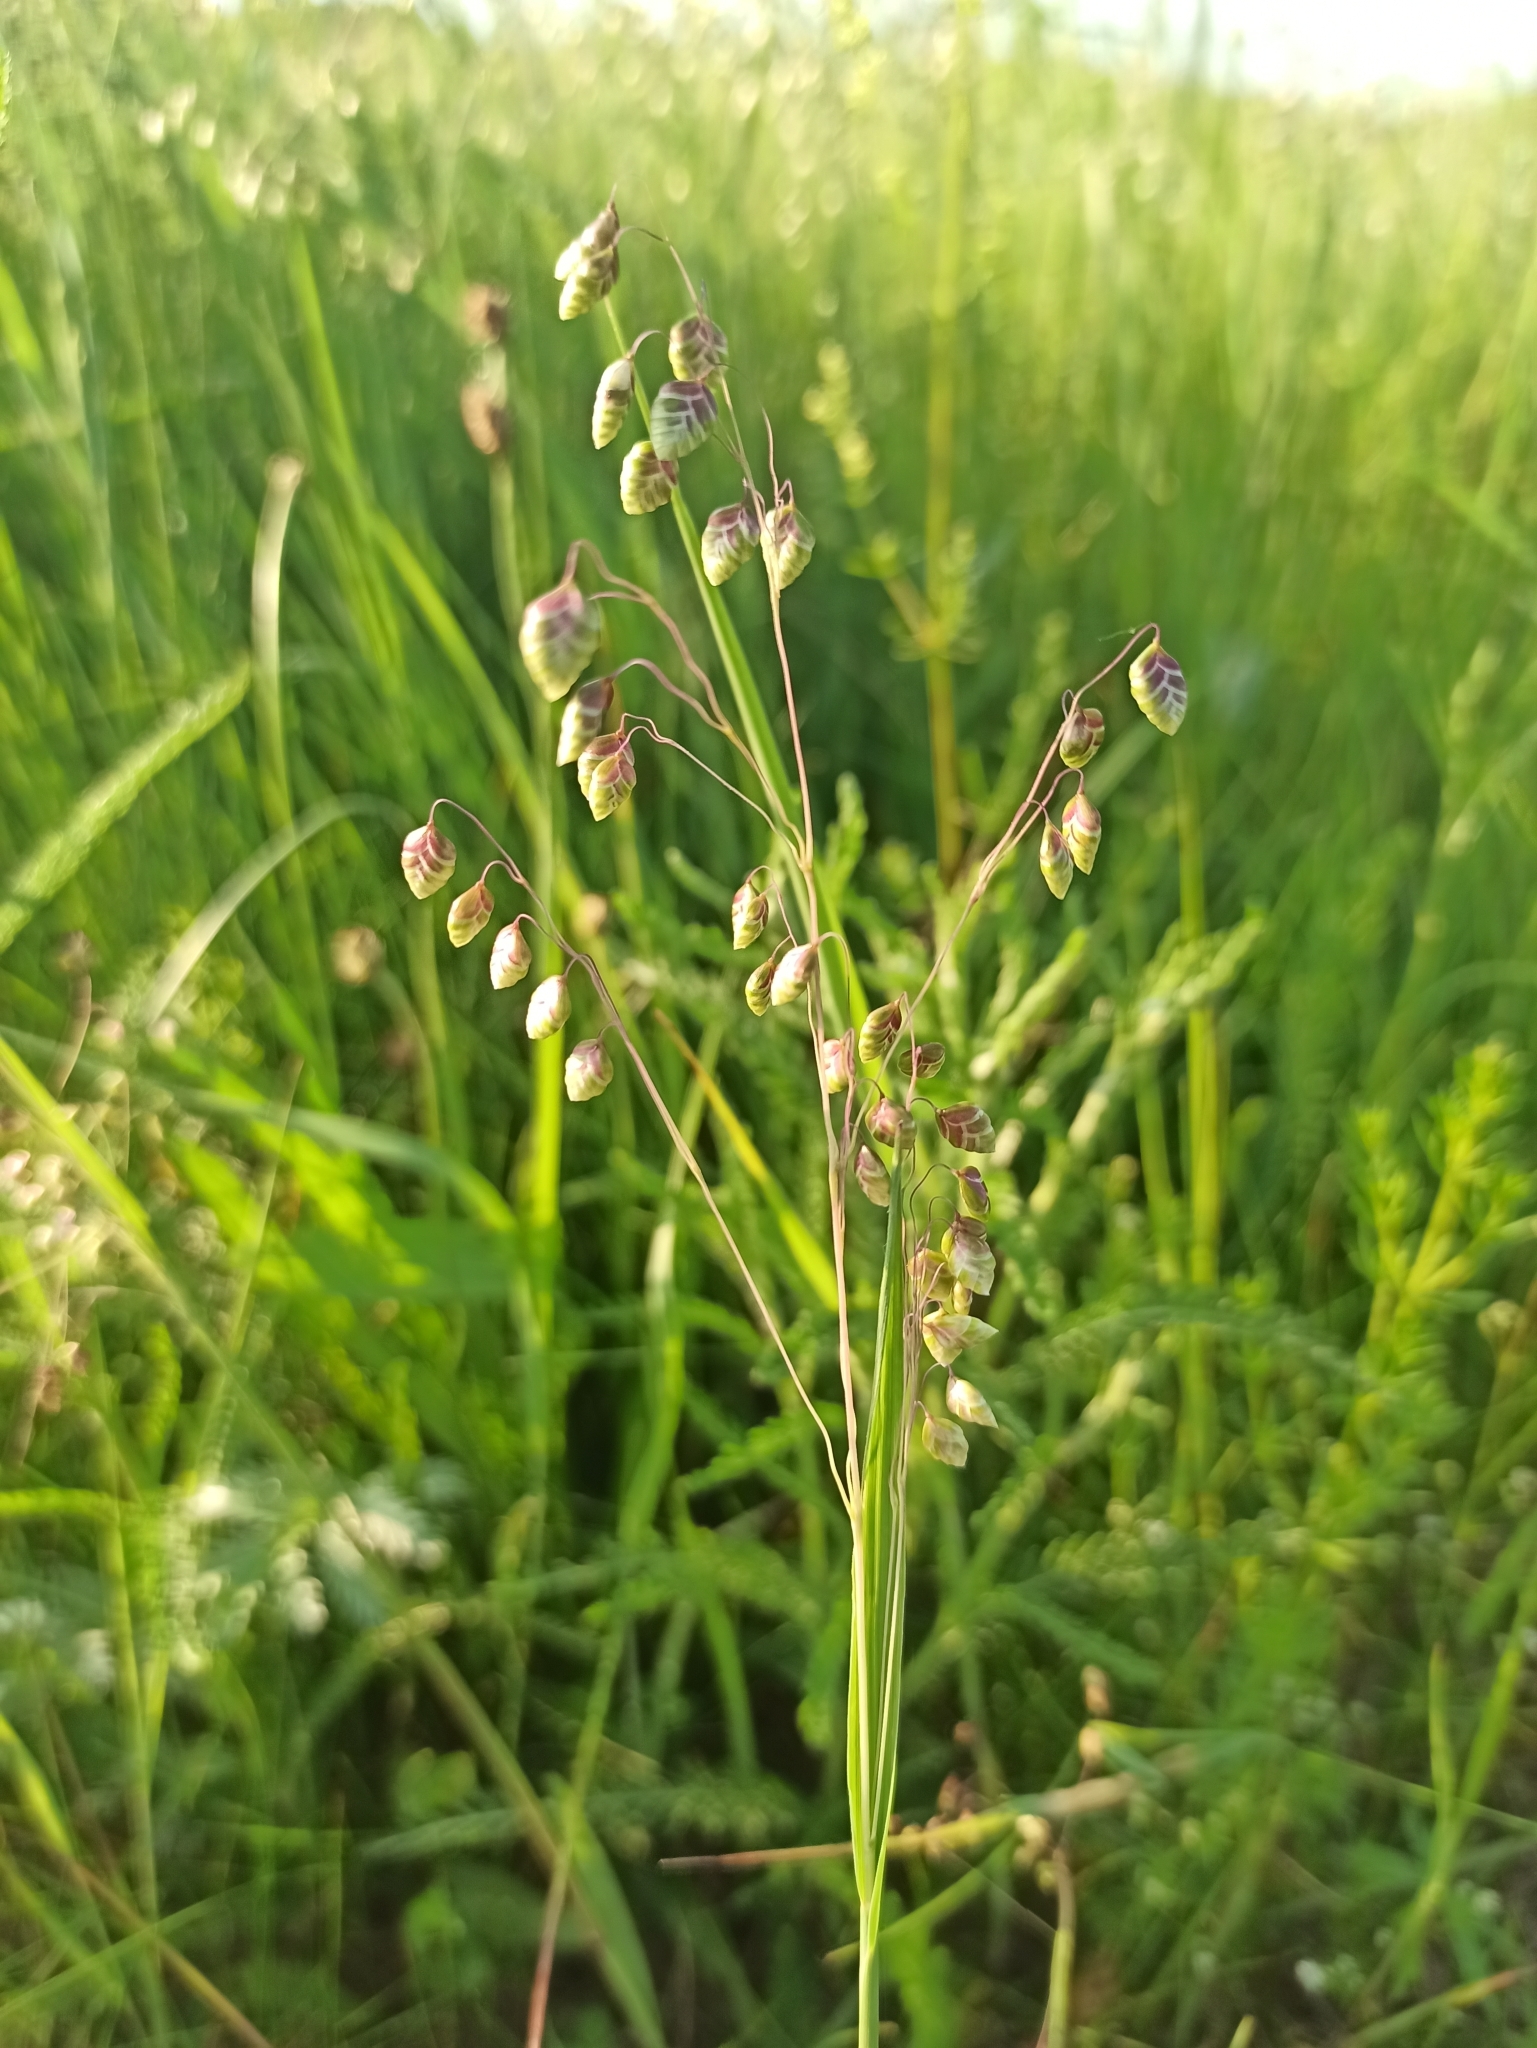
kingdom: Plantae
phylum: Tracheophyta
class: Liliopsida
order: Poales
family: Poaceae
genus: Briza
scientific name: Briza media
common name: Quaking grass
